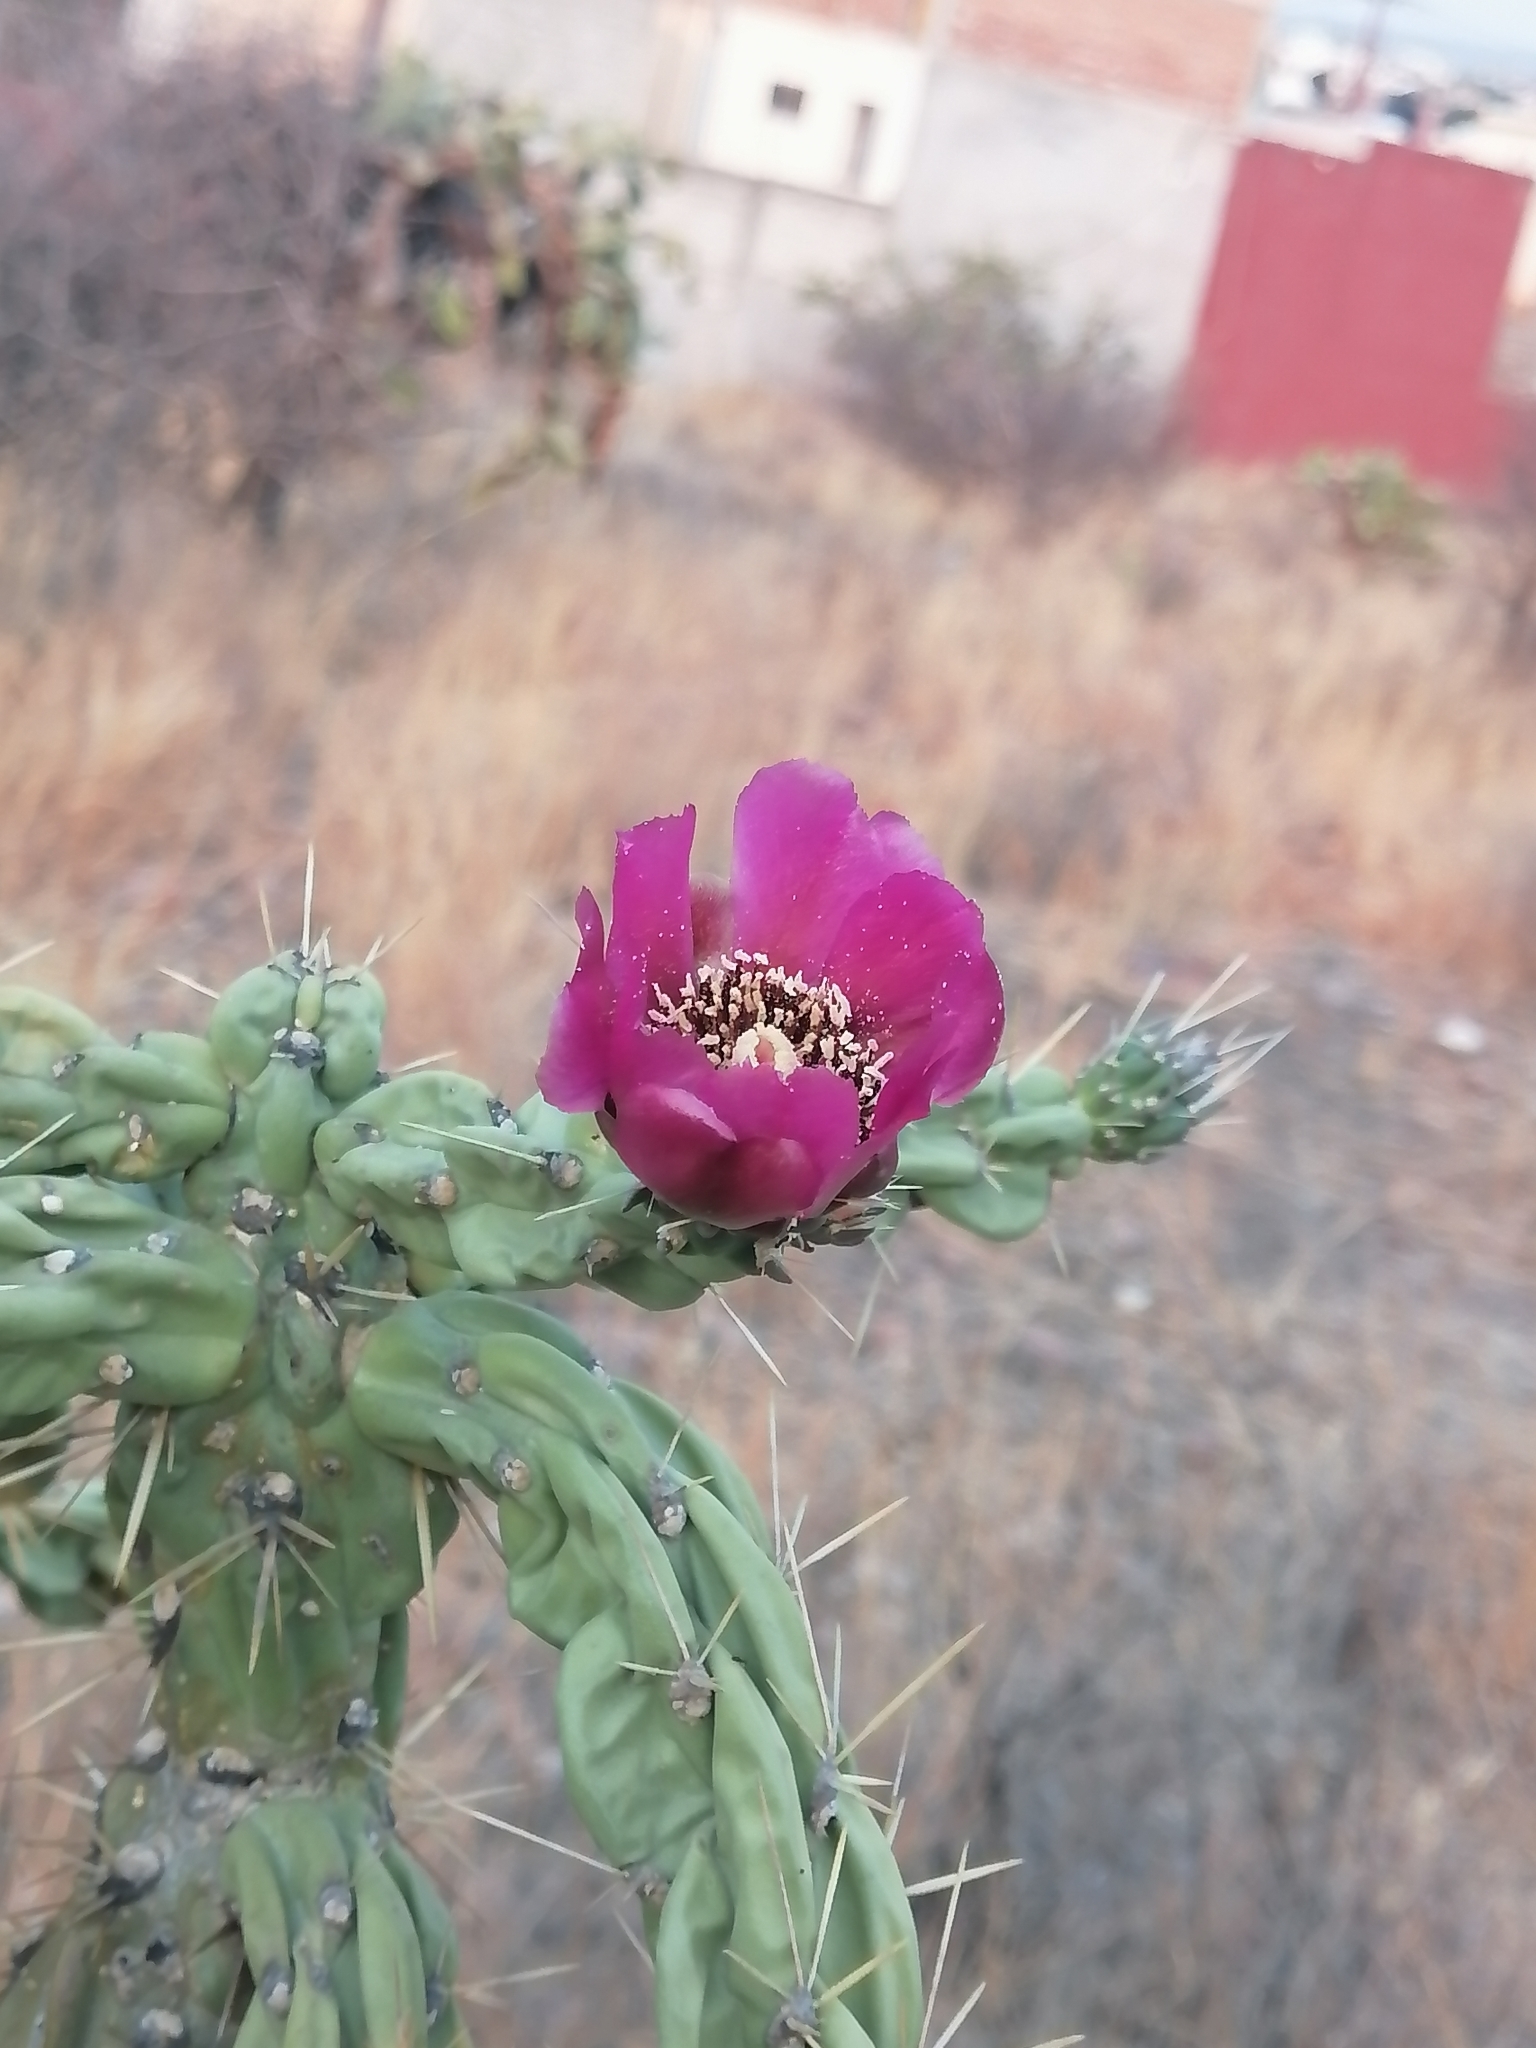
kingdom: Plantae
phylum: Tracheophyta
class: Magnoliopsida
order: Caryophyllales
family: Cactaceae
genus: Cylindropuntia
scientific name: Cylindropuntia imbricata
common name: Candelabrum cactus
